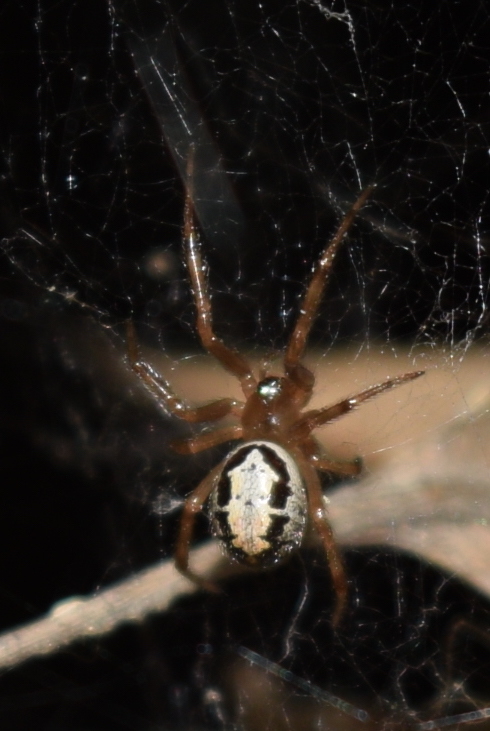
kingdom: Animalia
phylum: Arthropoda
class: Arachnida
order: Araneae
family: Theridiidae
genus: Steatoda
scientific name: Steatoda nobilis
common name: Cobweb weaver
